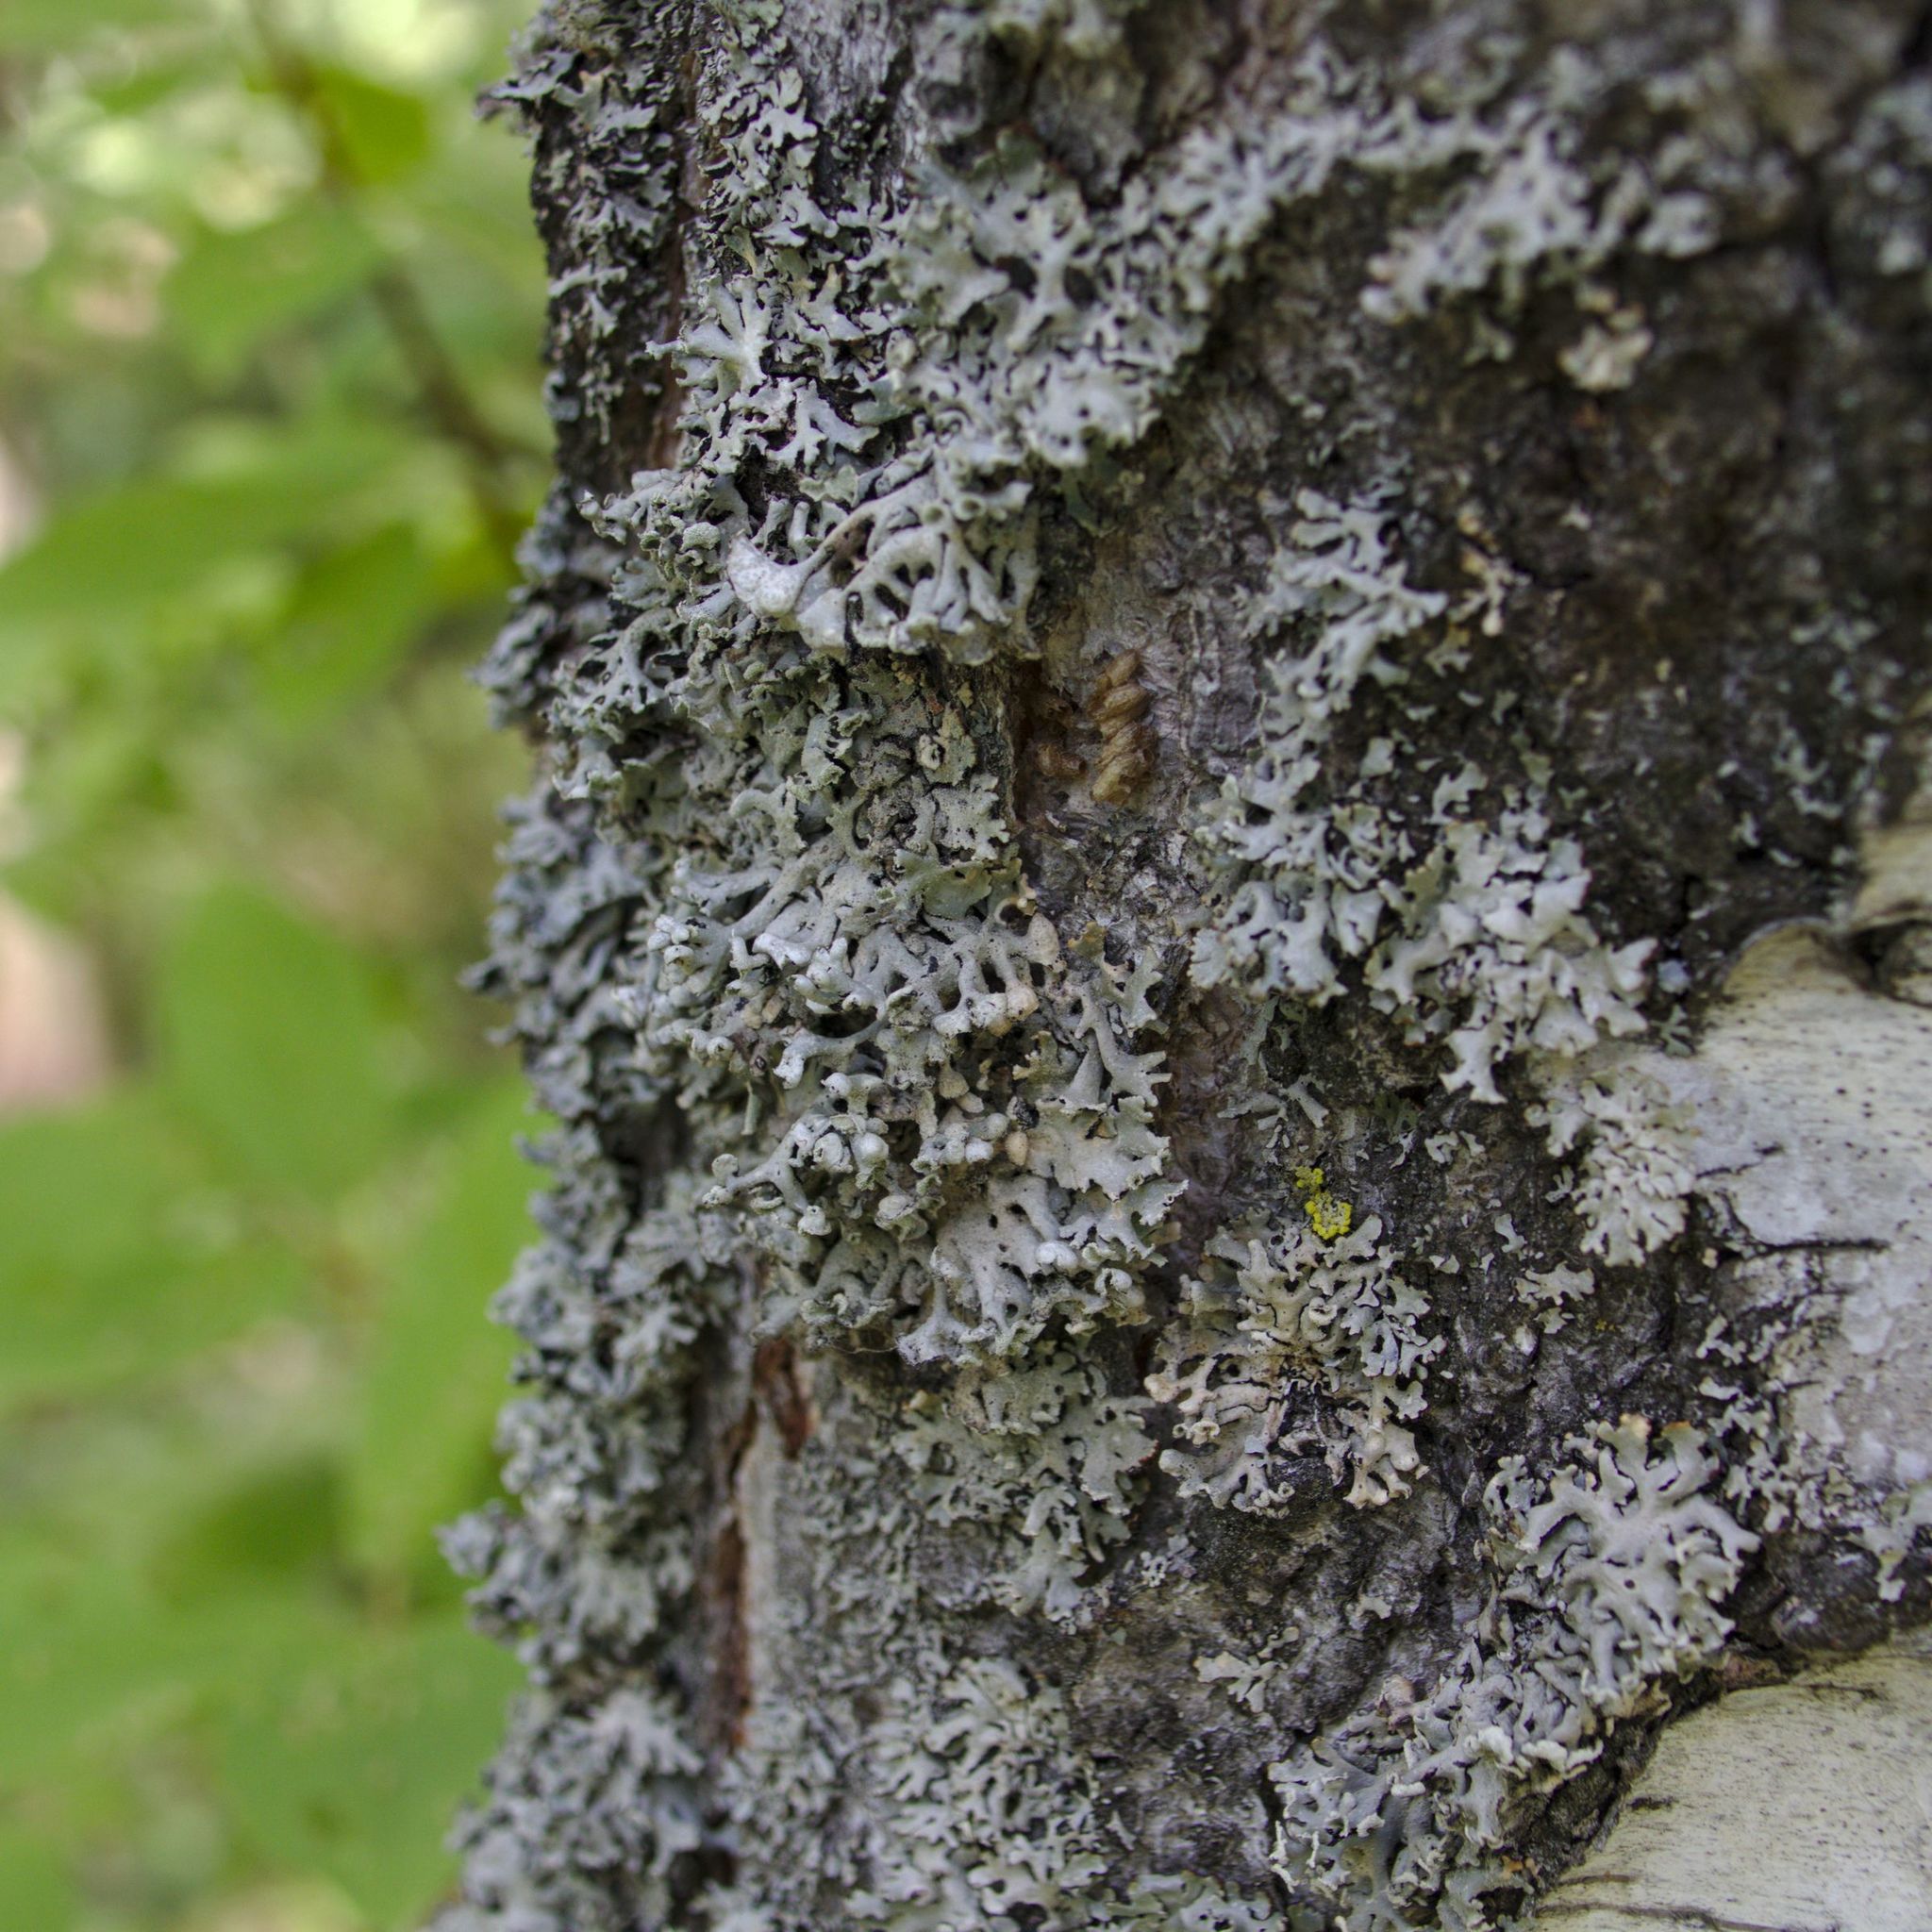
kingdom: Fungi
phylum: Ascomycota
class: Lecanoromycetes
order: Lecanorales
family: Parmeliaceae
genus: Hypogymnia
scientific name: Hypogymnia physodes
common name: Dark crottle
